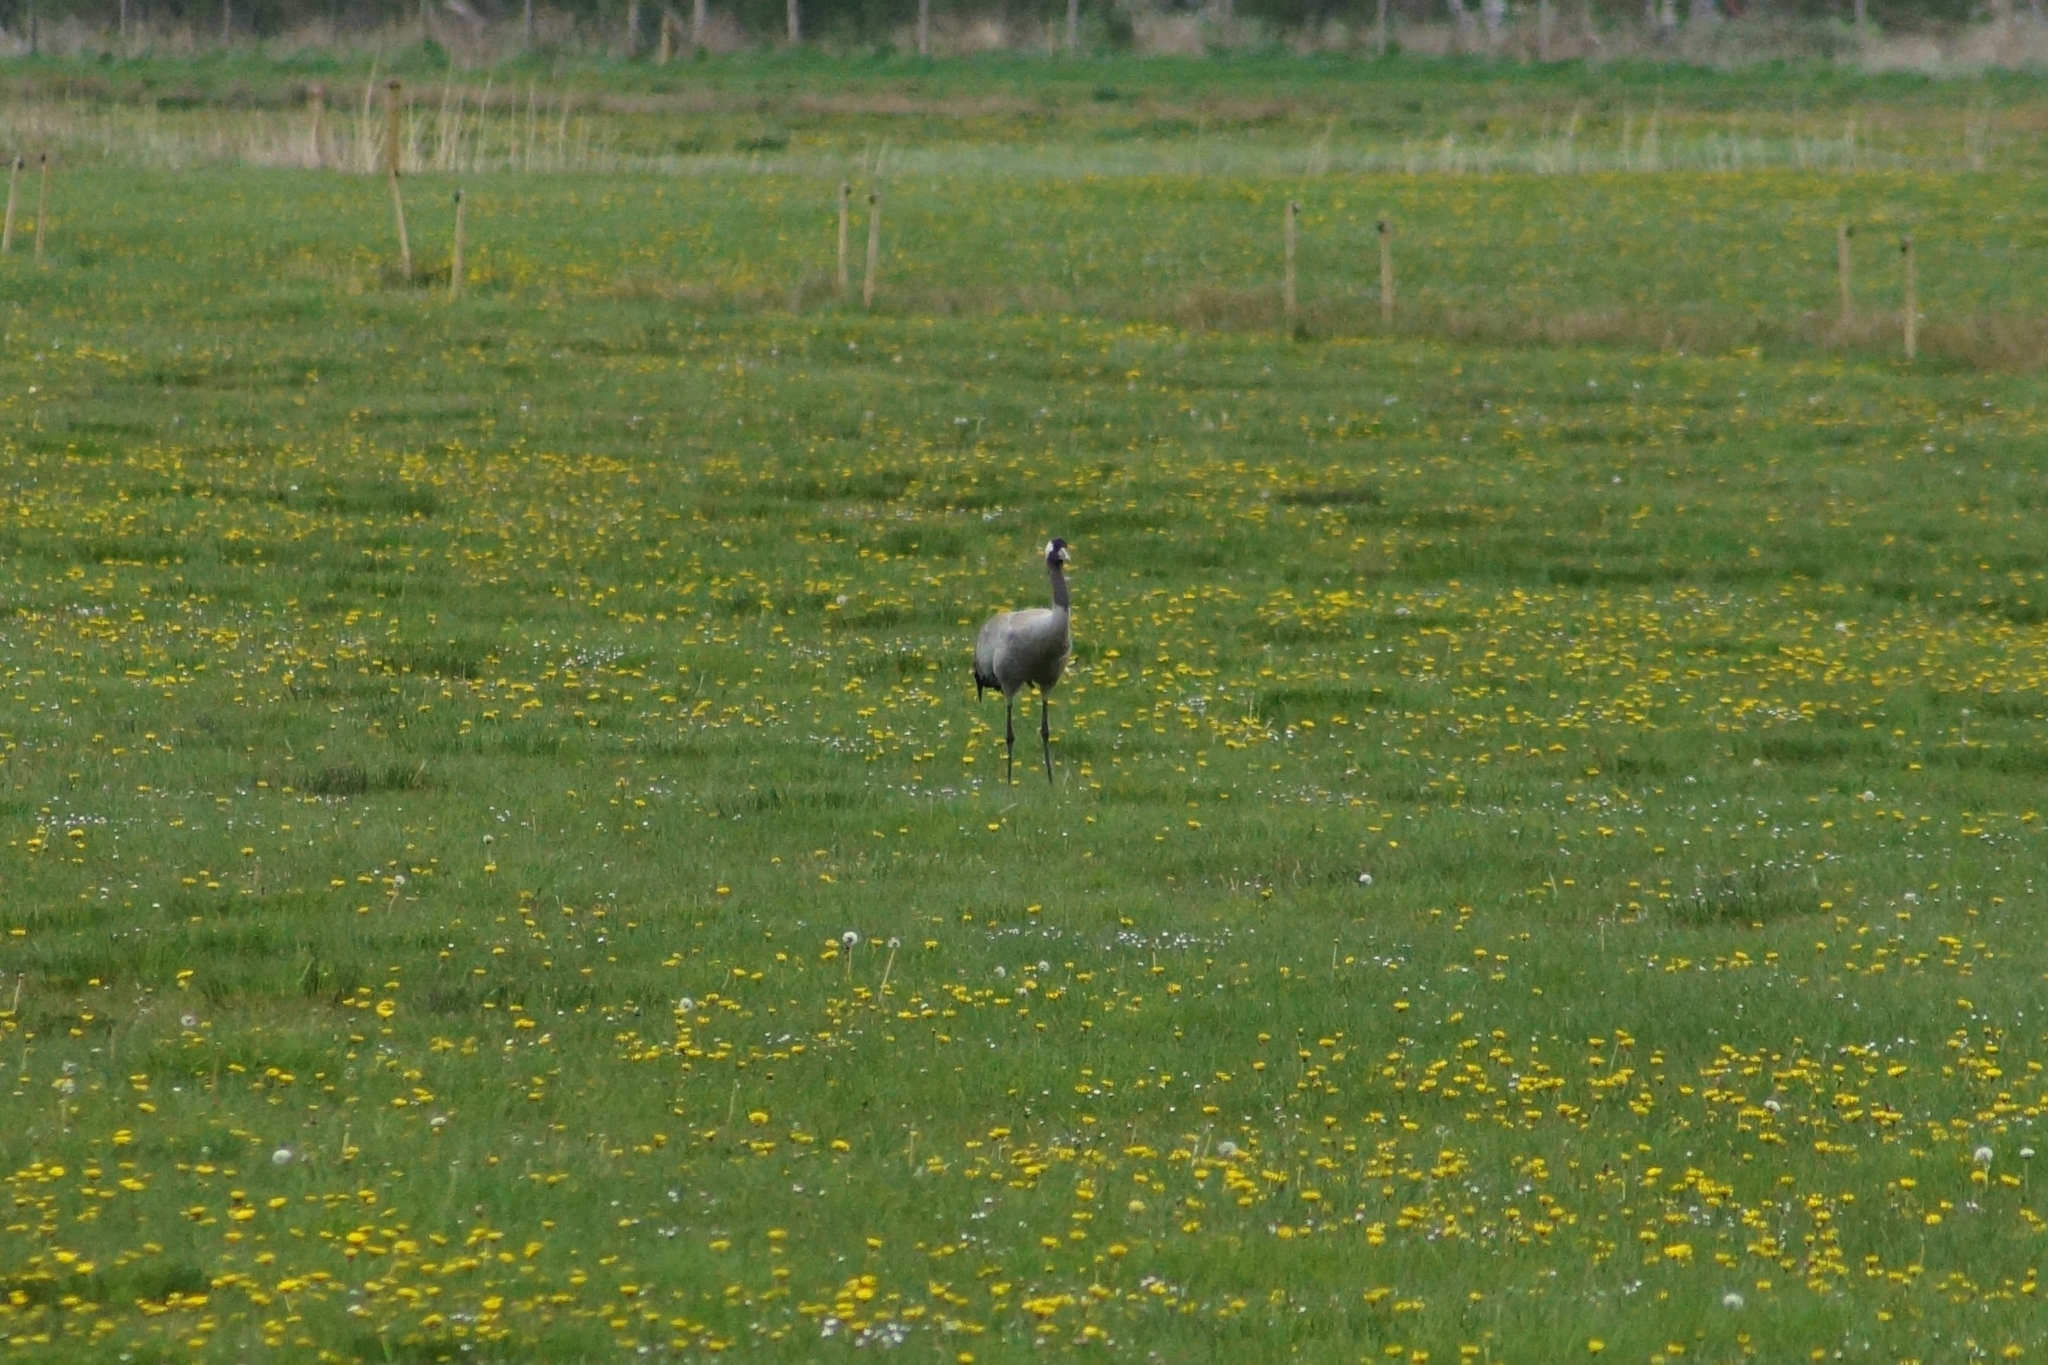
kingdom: Animalia
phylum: Chordata
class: Aves
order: Gruiformes
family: Gruidae
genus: Grus
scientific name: Grus grus
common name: Common crane
